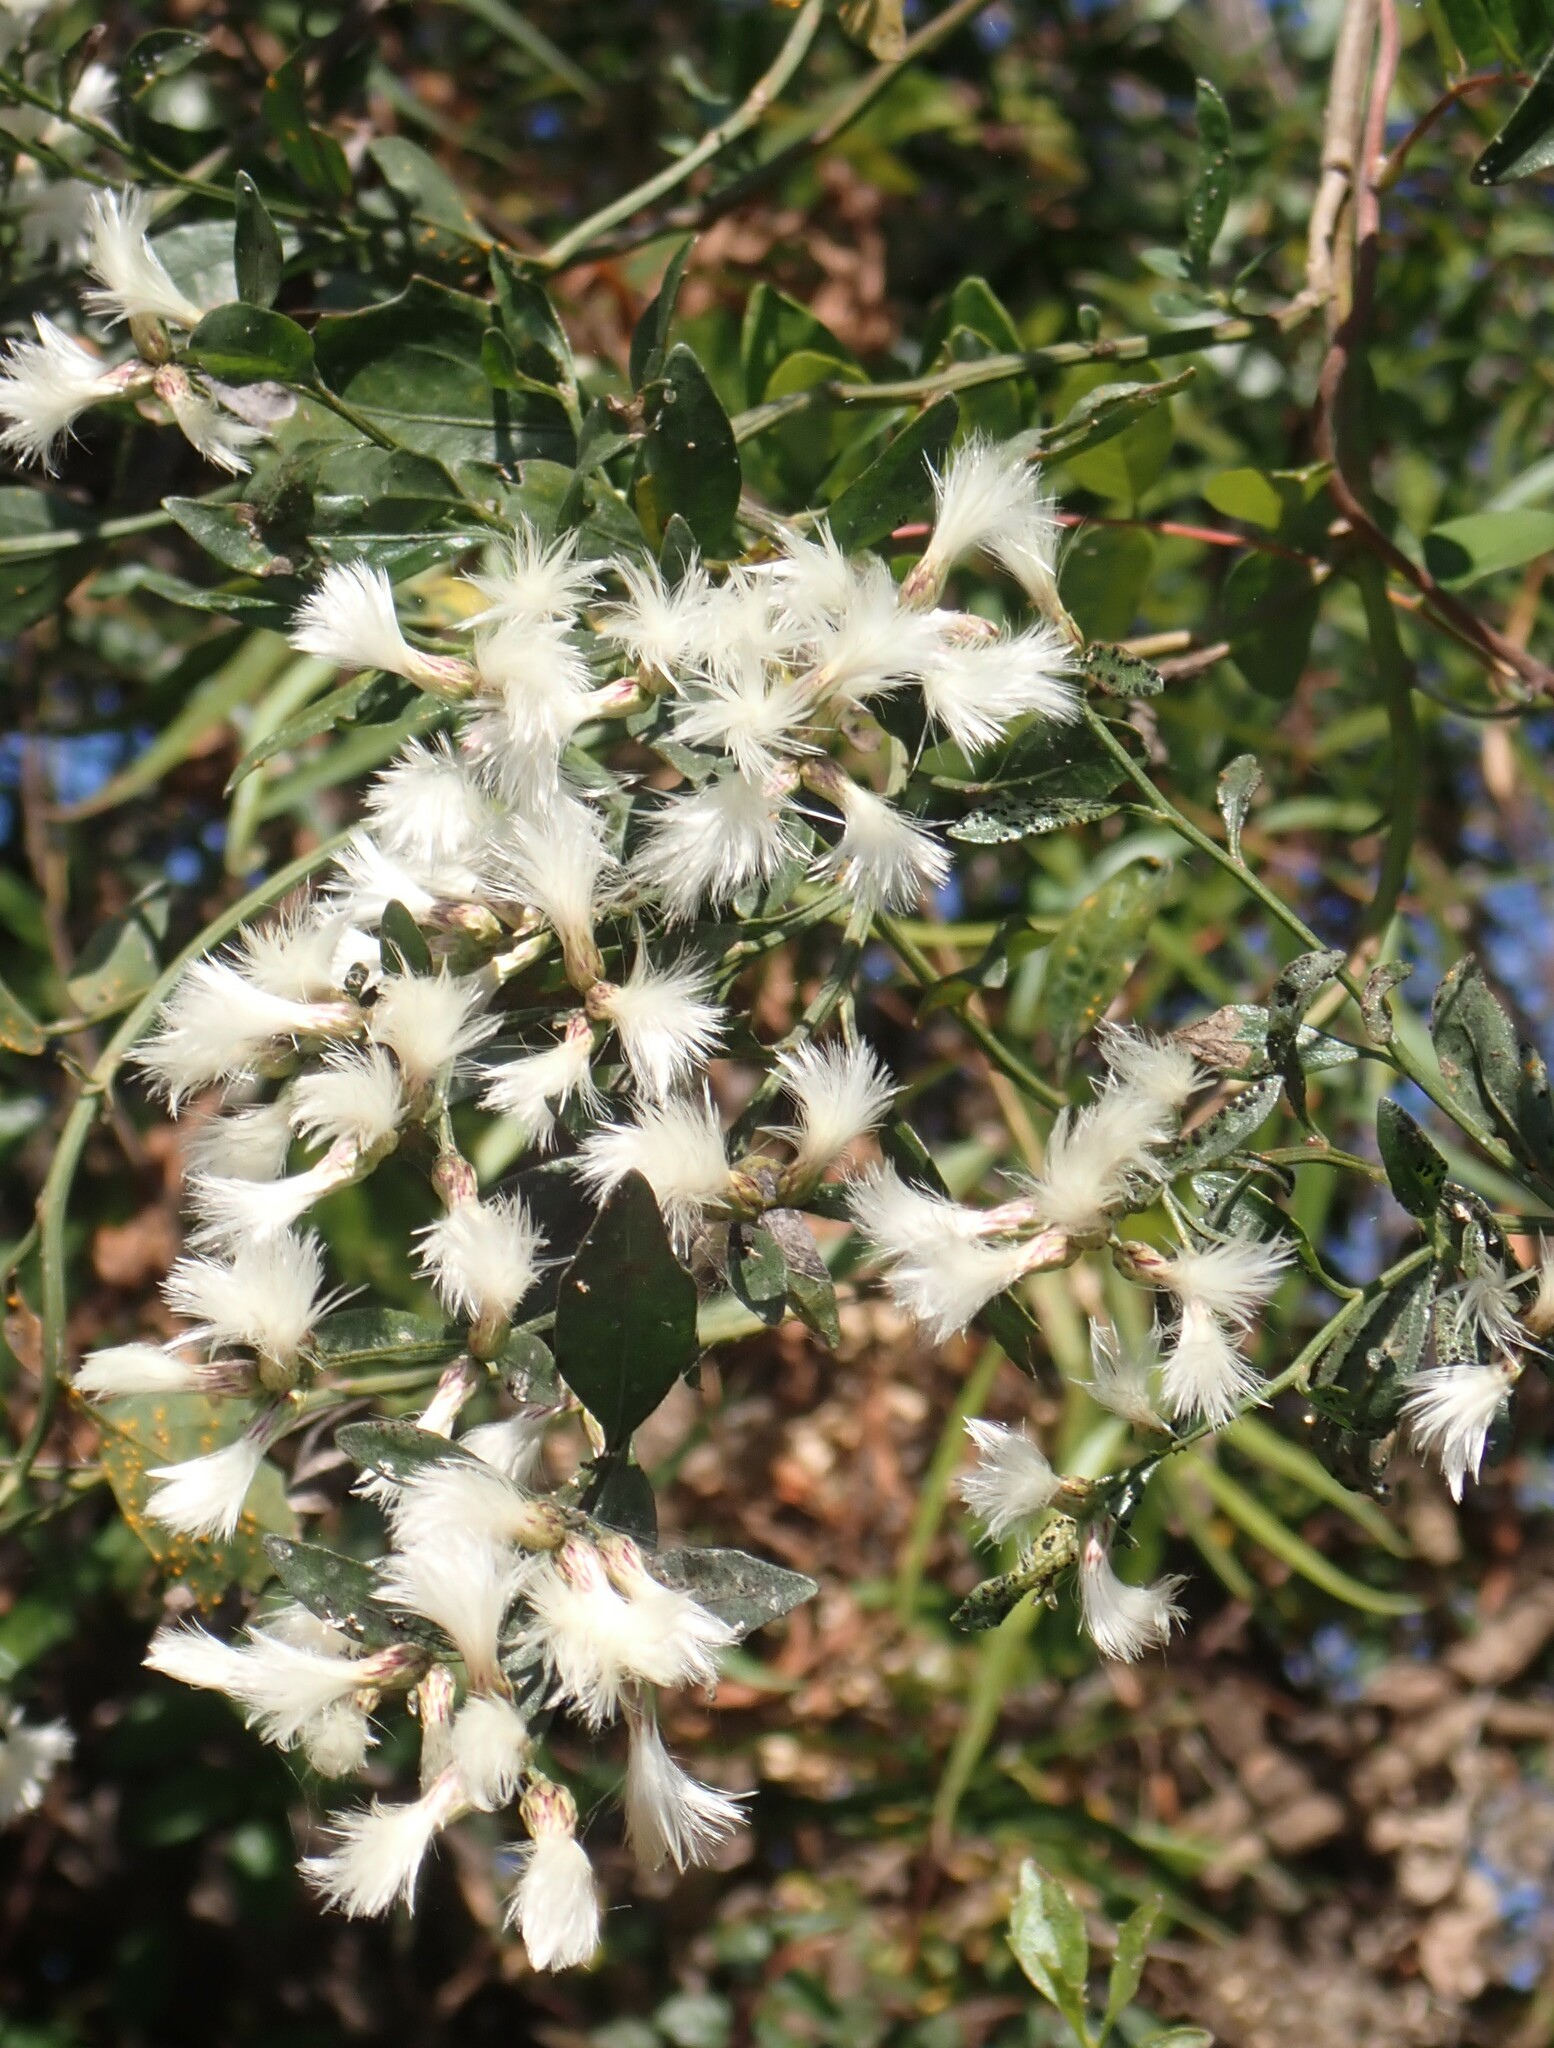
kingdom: Plantae
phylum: Tracheophyta
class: Magnoliopsida
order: Asterales
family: Asteraceae
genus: Baccharis
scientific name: Baccharis halimifolia
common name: Eastern baccharis
